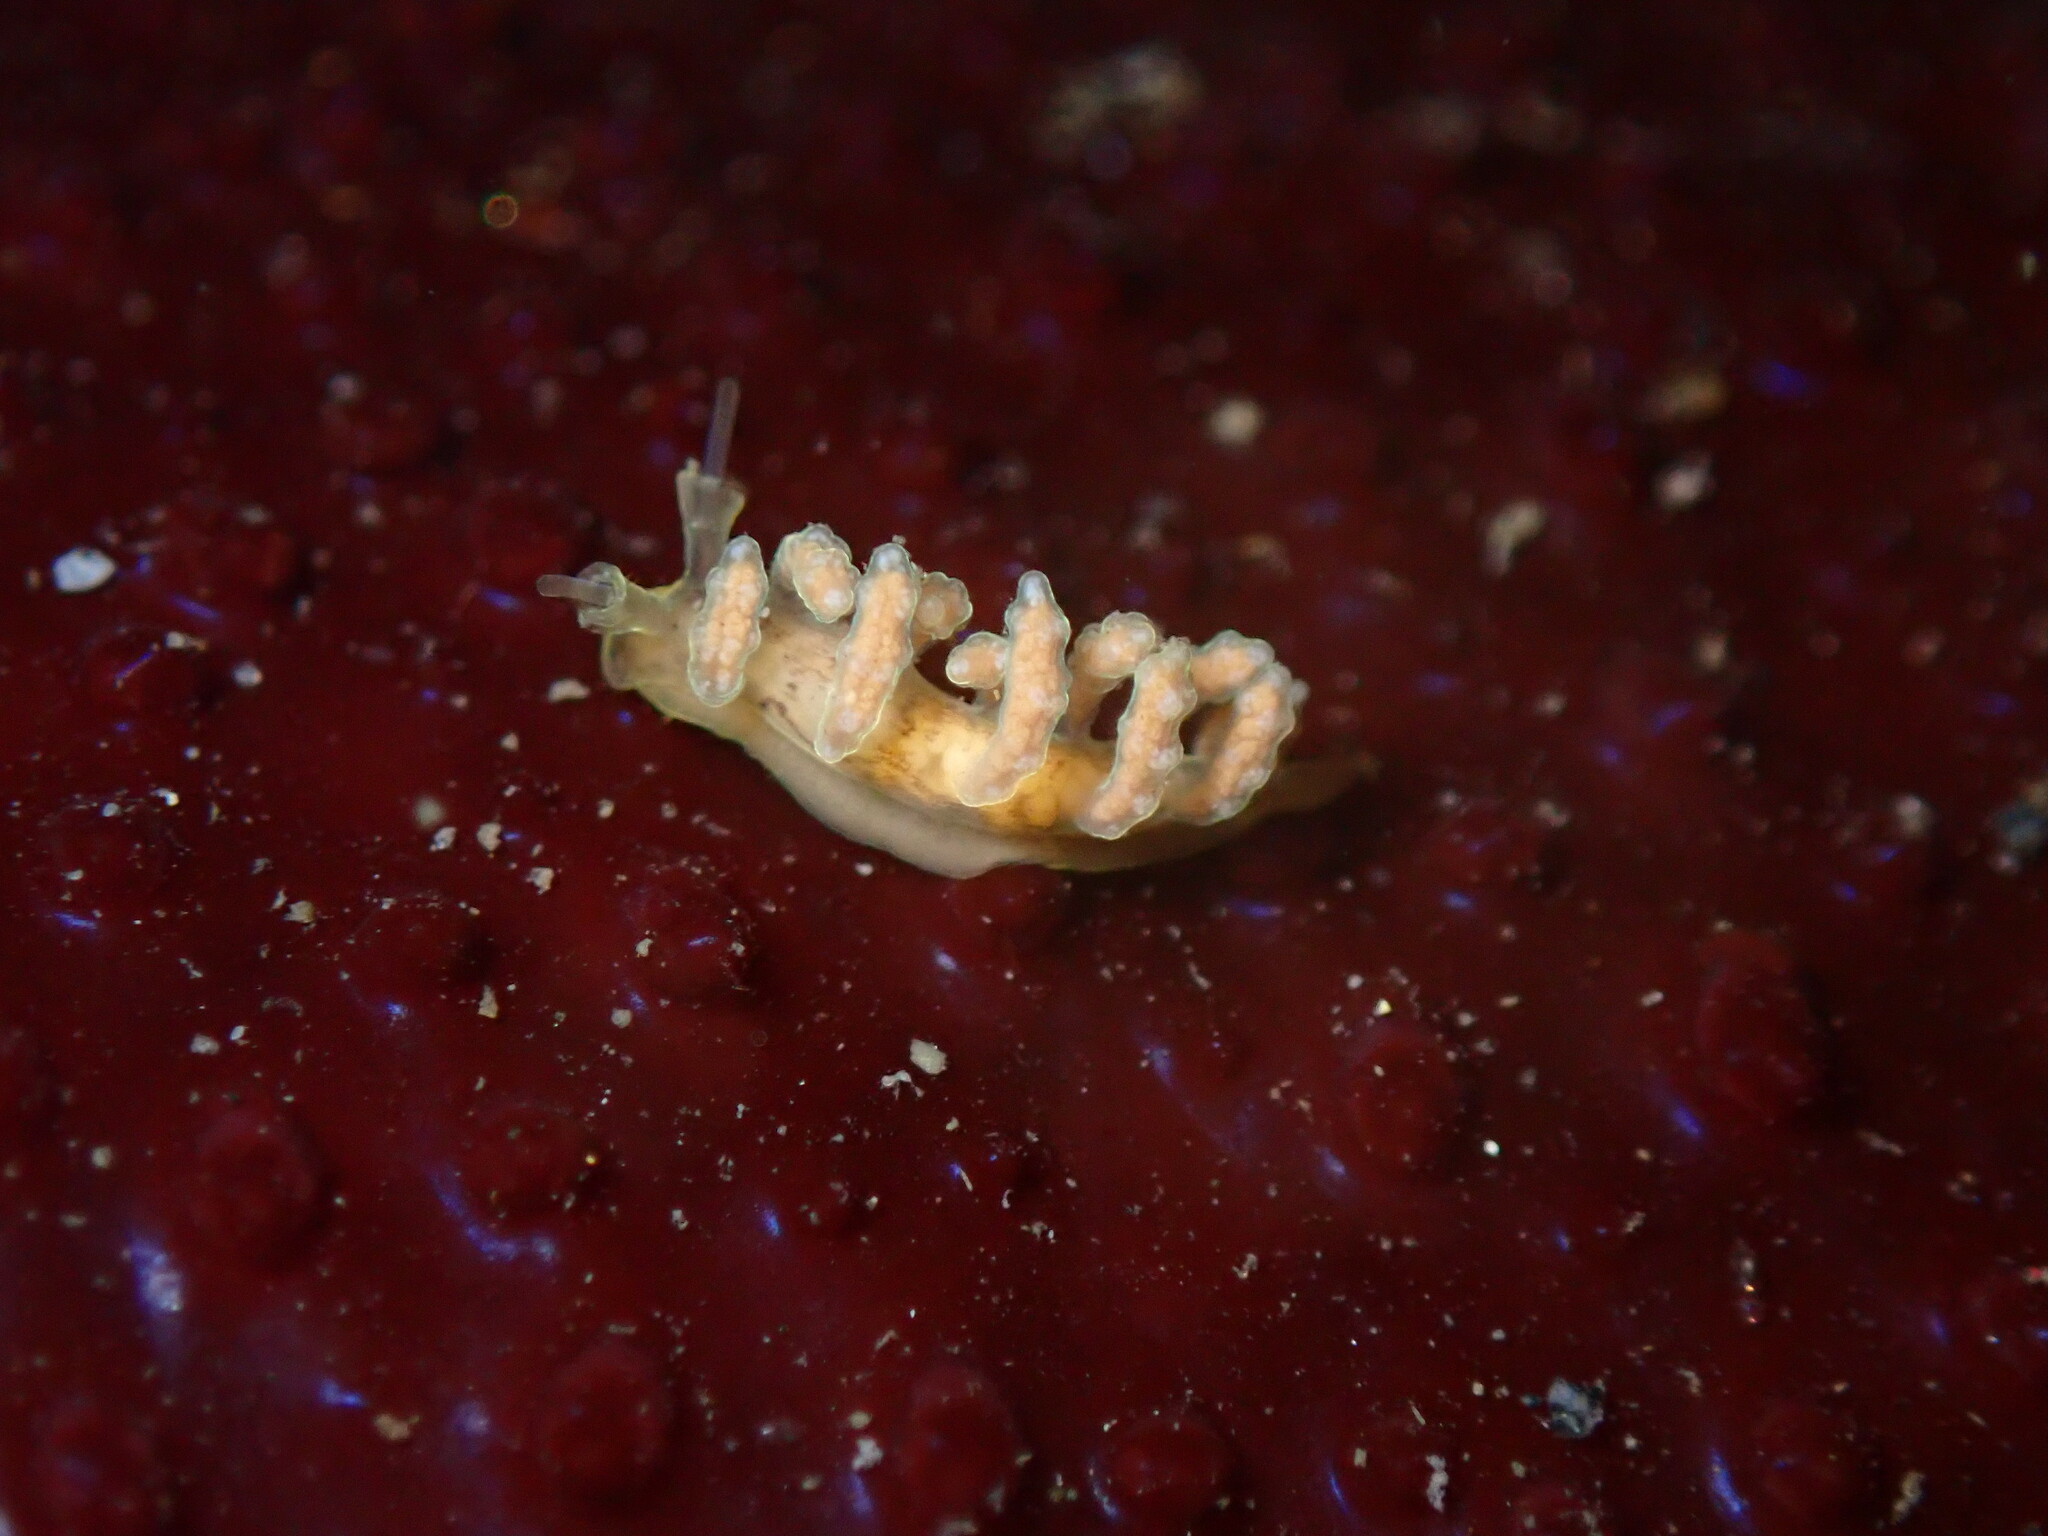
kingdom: Animalia
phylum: Mollusca
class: Gastropoda
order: Nudibranchia
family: Dotidae
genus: Doto
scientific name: Doto columbiana
